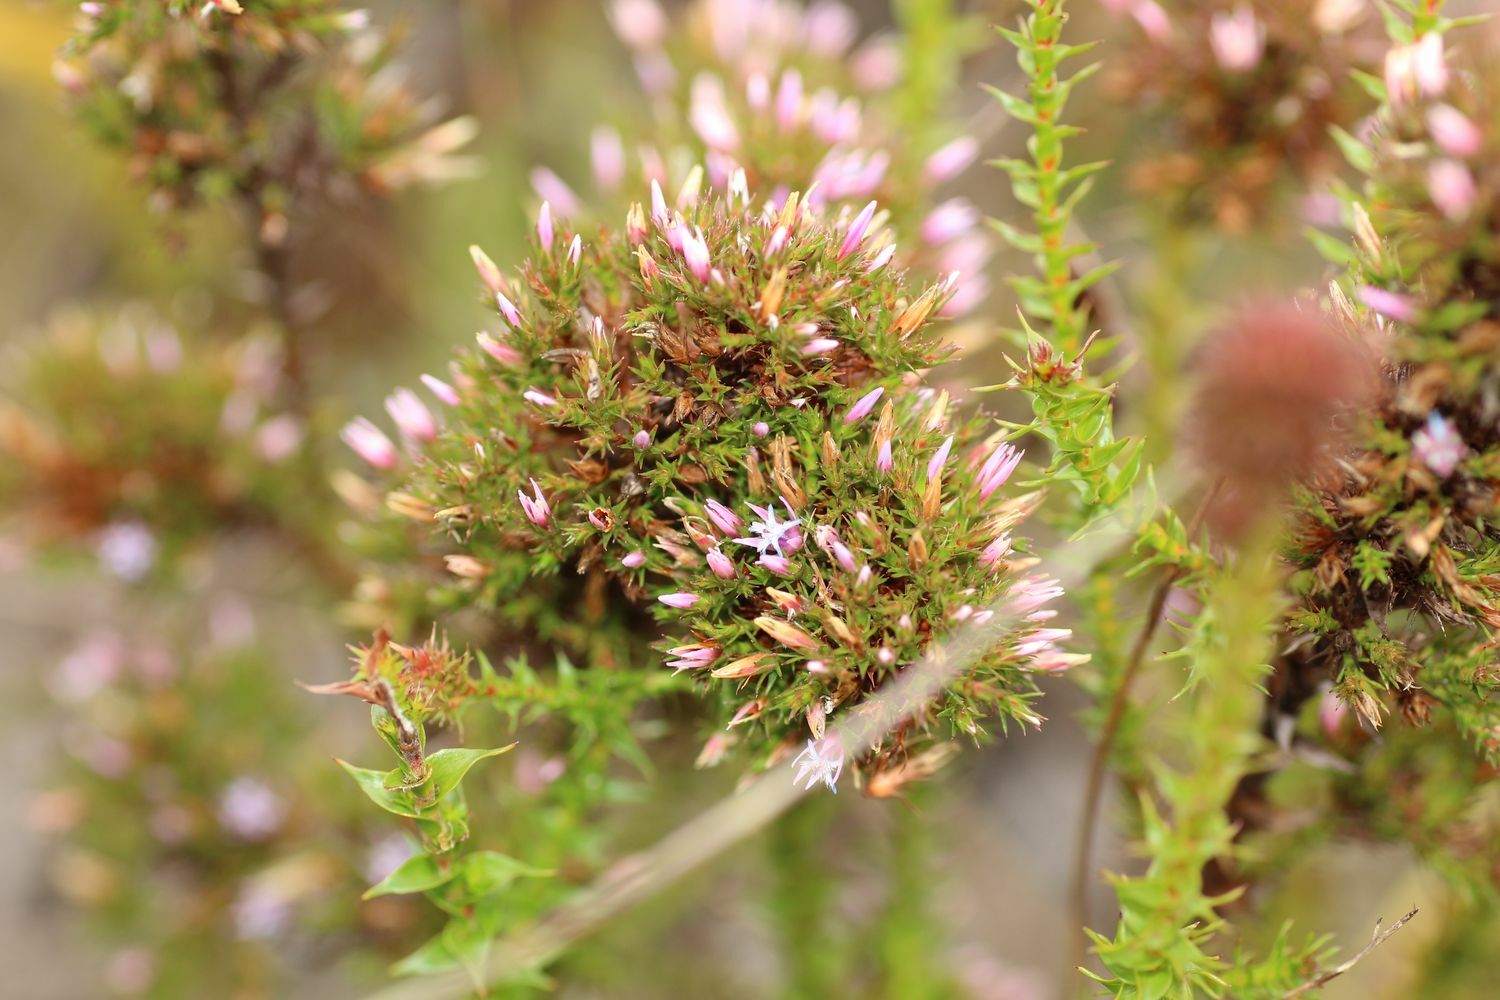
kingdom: Plantae
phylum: Tracheophyta
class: Magnoliopsida
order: Ericales
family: Ericaceae
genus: Andersonia
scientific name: Andersonia caerulea
